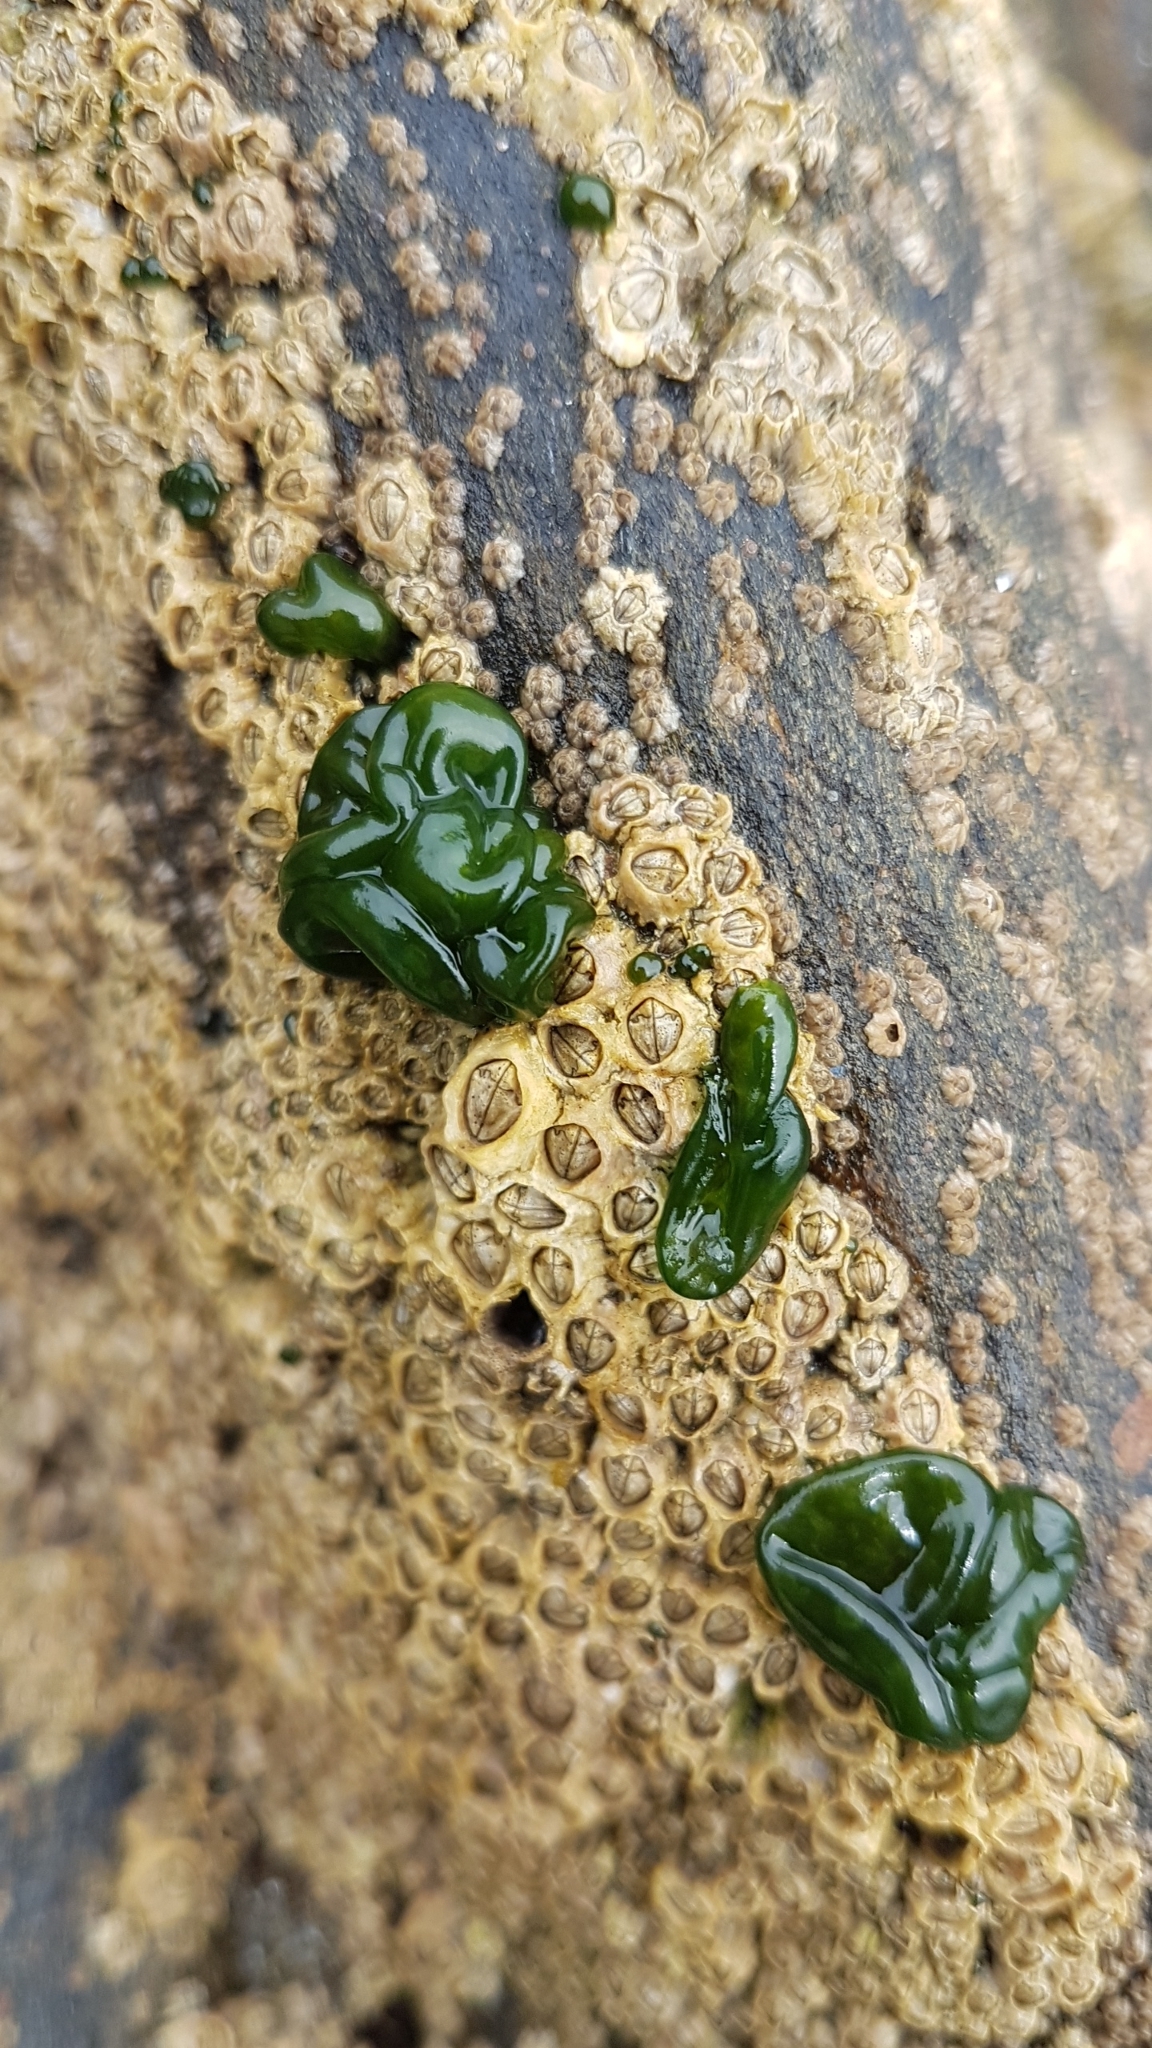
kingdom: Bacteria
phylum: Cyanobacteria
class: Cyanobacteriia
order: Cyanobacteriales
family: Nostocaceae
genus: Rivularia
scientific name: Rivularia bullata
